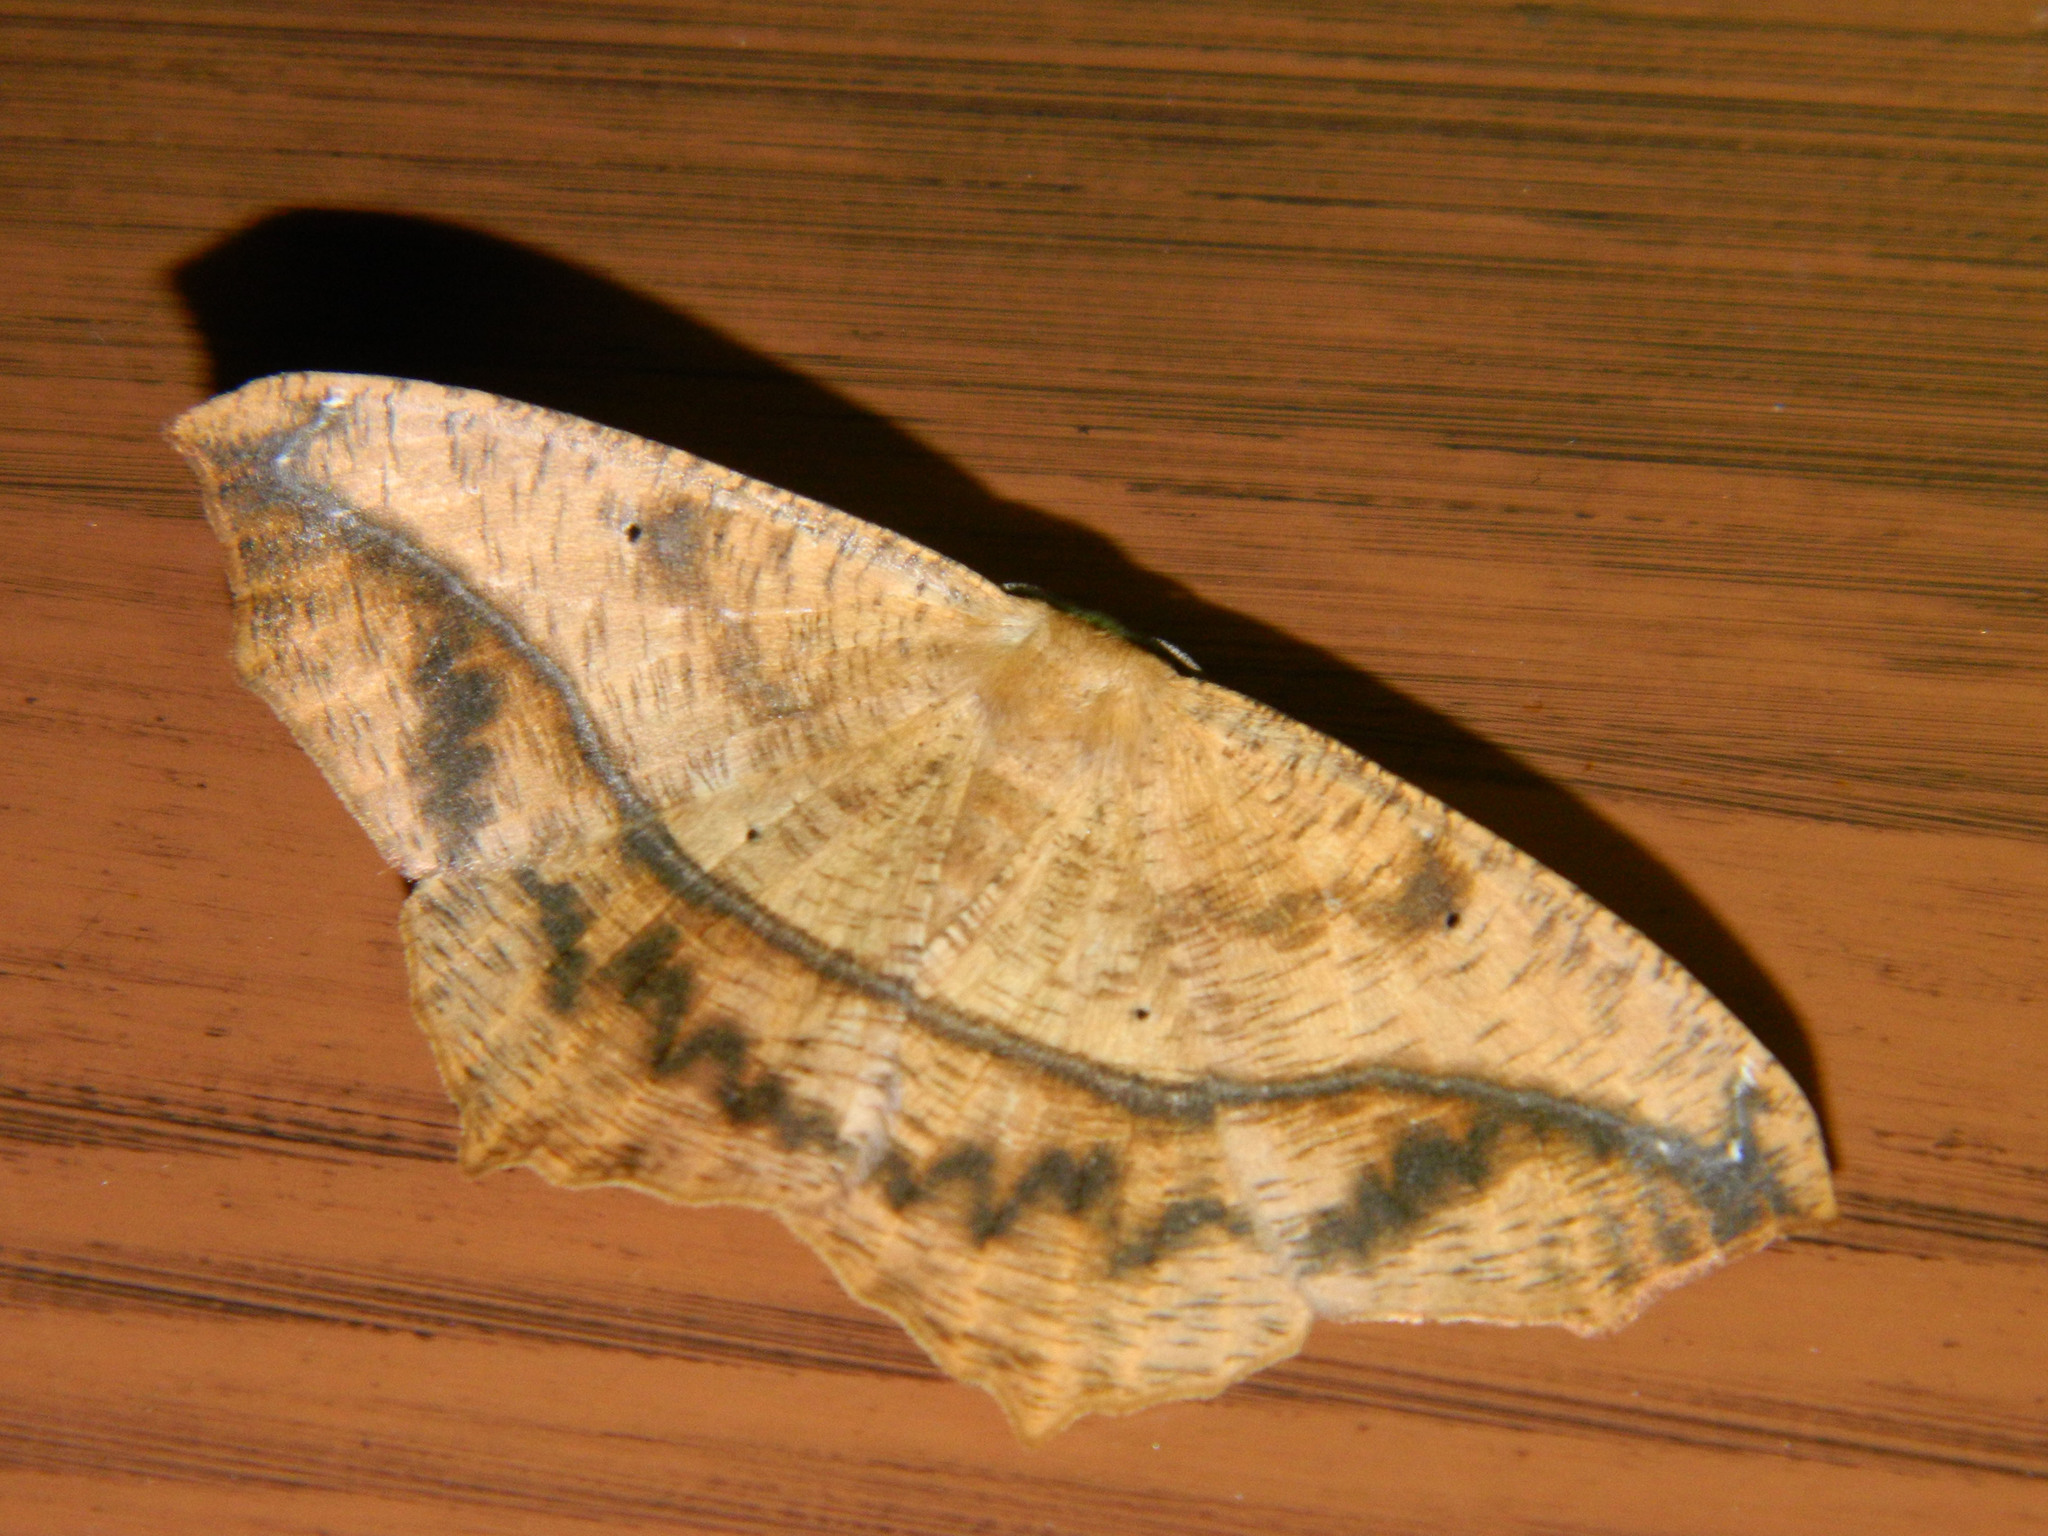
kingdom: Animalia
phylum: Arthropoda
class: Insecta
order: Lepidoptera
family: Geometridae
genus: Prochoerodes
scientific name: Prochoerodes lineola
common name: Large maple spanworm
